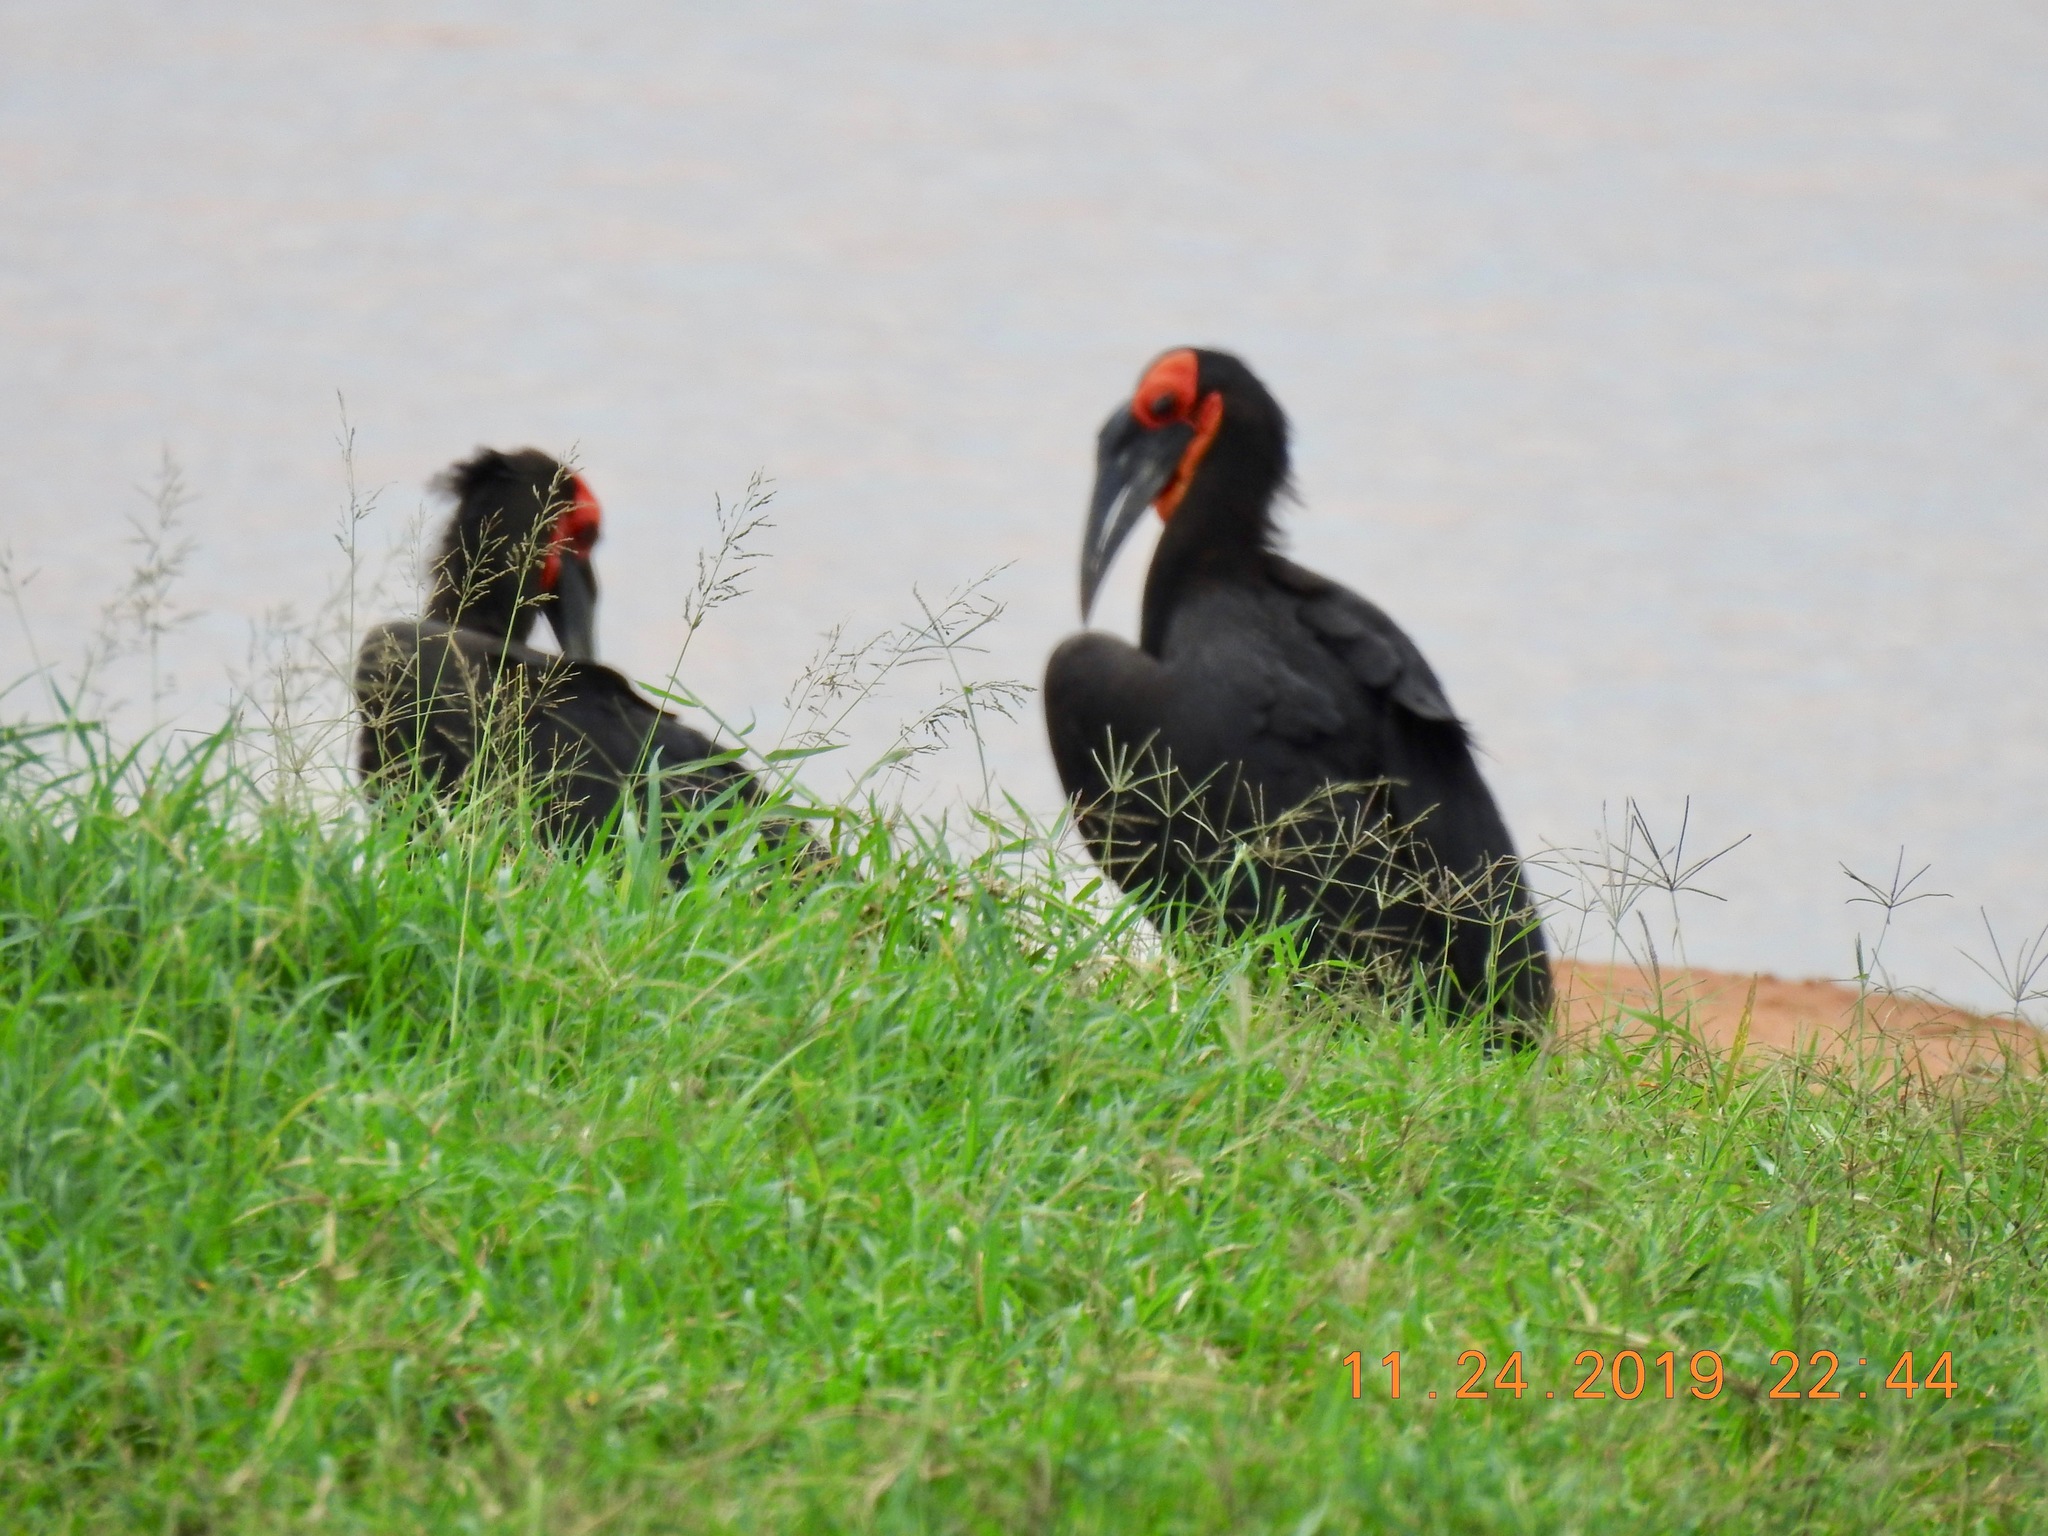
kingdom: Animalia
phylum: Chordata
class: Aves
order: Bucerotiformes
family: Bucorvidae
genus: Bucorvus
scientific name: Bucorvus leadbeateri
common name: Southern ground-hornbill
